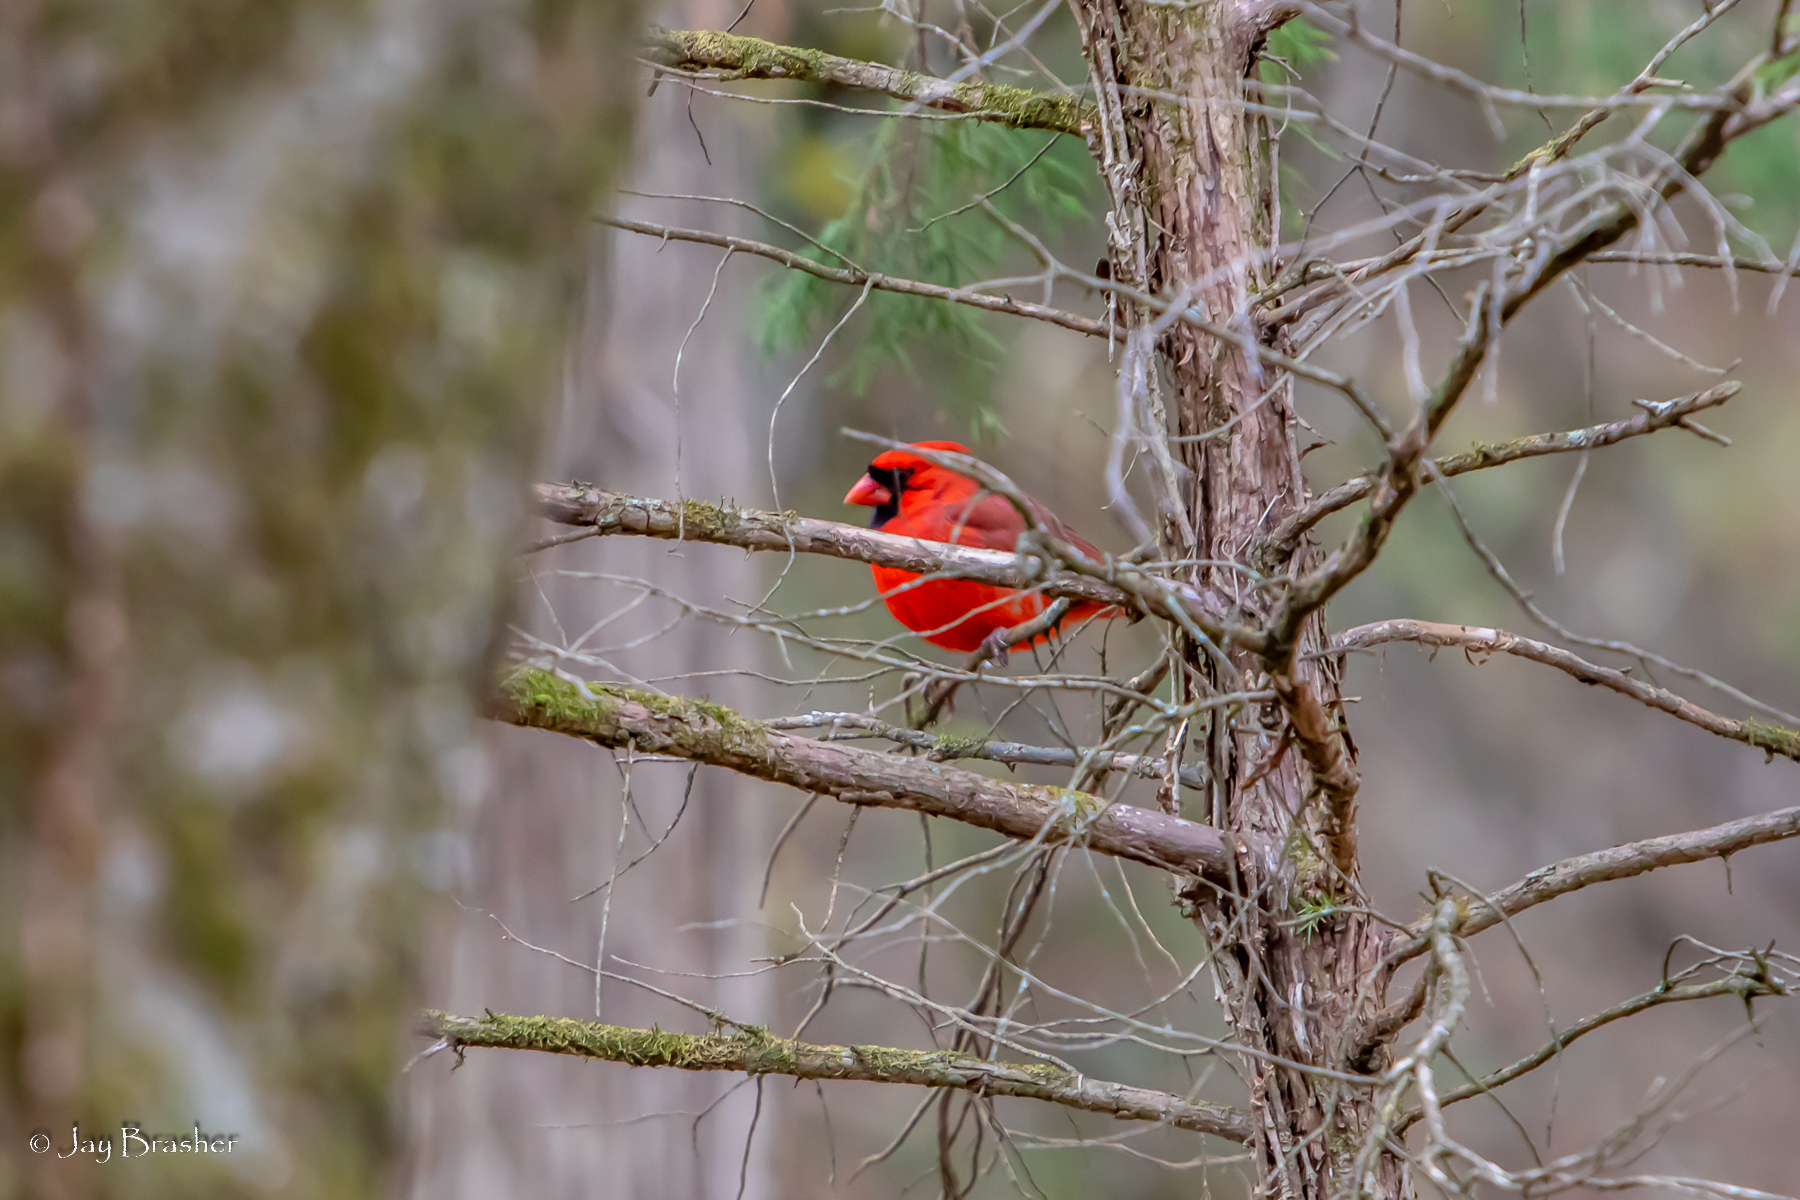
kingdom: Animalia
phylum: Chordata
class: Aves
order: Passeriformes
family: Cardinalidae
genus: Cardinalis
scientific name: Cardinalis cardinalis
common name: Northern cardinal
